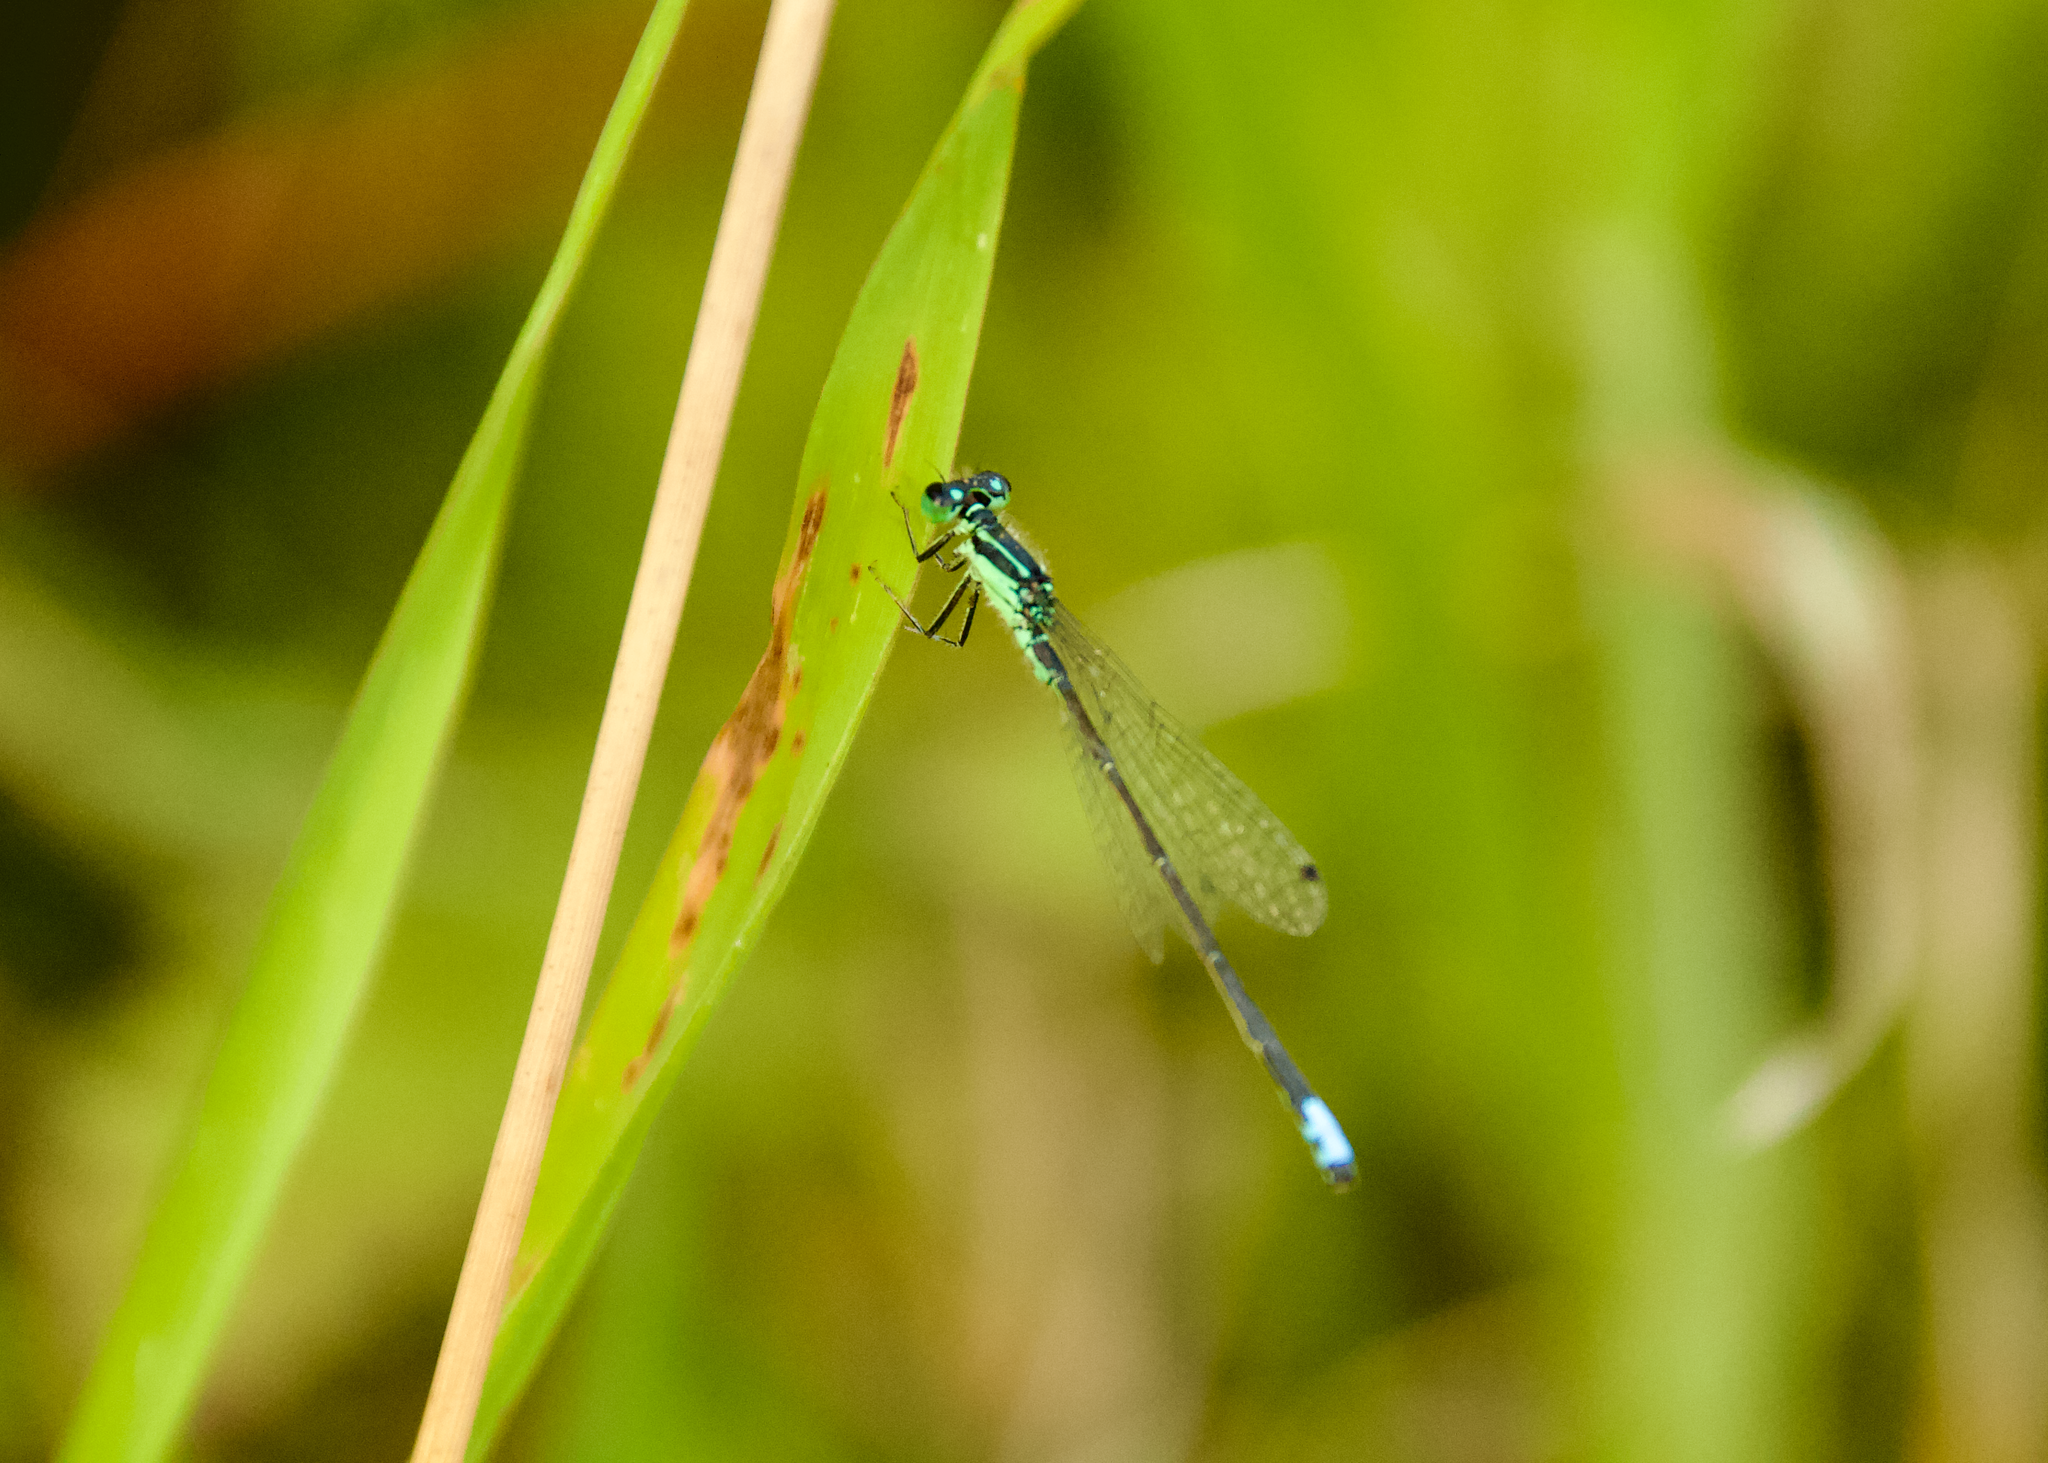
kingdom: Animalia
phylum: Arthropoda
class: Insecta
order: Odonata
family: Coenagrionidae
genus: Ischnura
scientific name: Ischnura verticalis
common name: Eastern forktail
